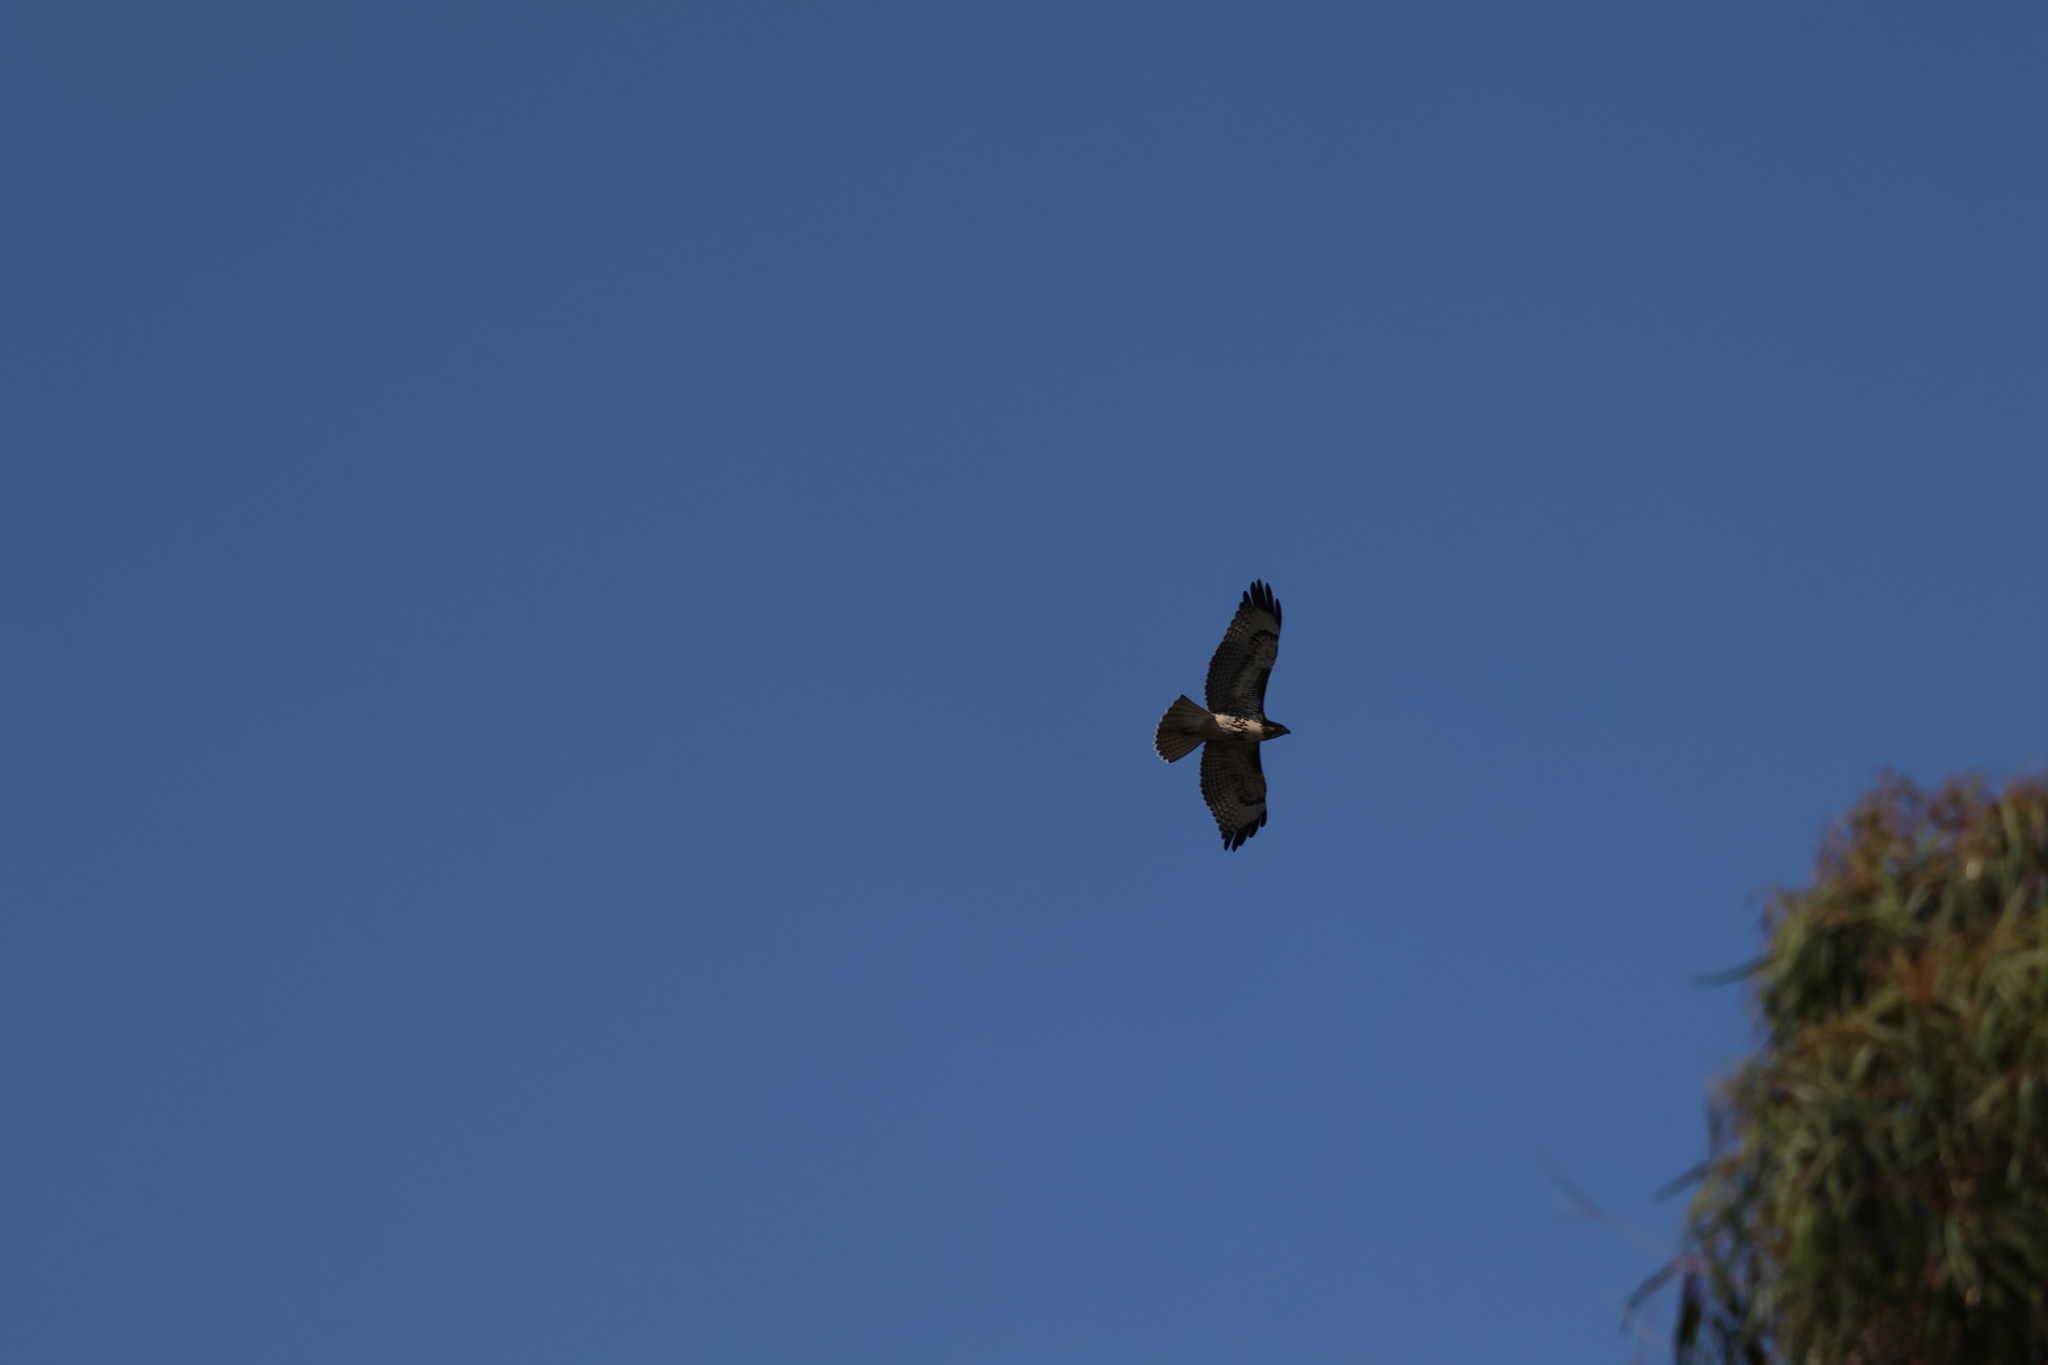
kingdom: Animalia
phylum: Chordata
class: Aves
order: Accipitriformes
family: Accipitridae
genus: Buteo
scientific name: Buteo jamaicensis
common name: Red-tailed hawk
